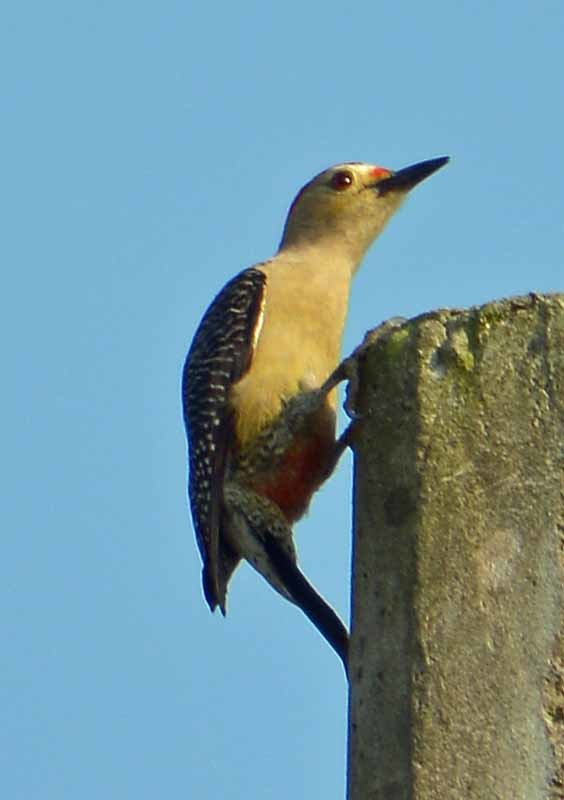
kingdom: Animalia
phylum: Chordata
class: Aves
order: Piciformes
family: Picidae
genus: Melanerpes
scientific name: Melanerpes aurifrons
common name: Golden-fronted woodpecker
